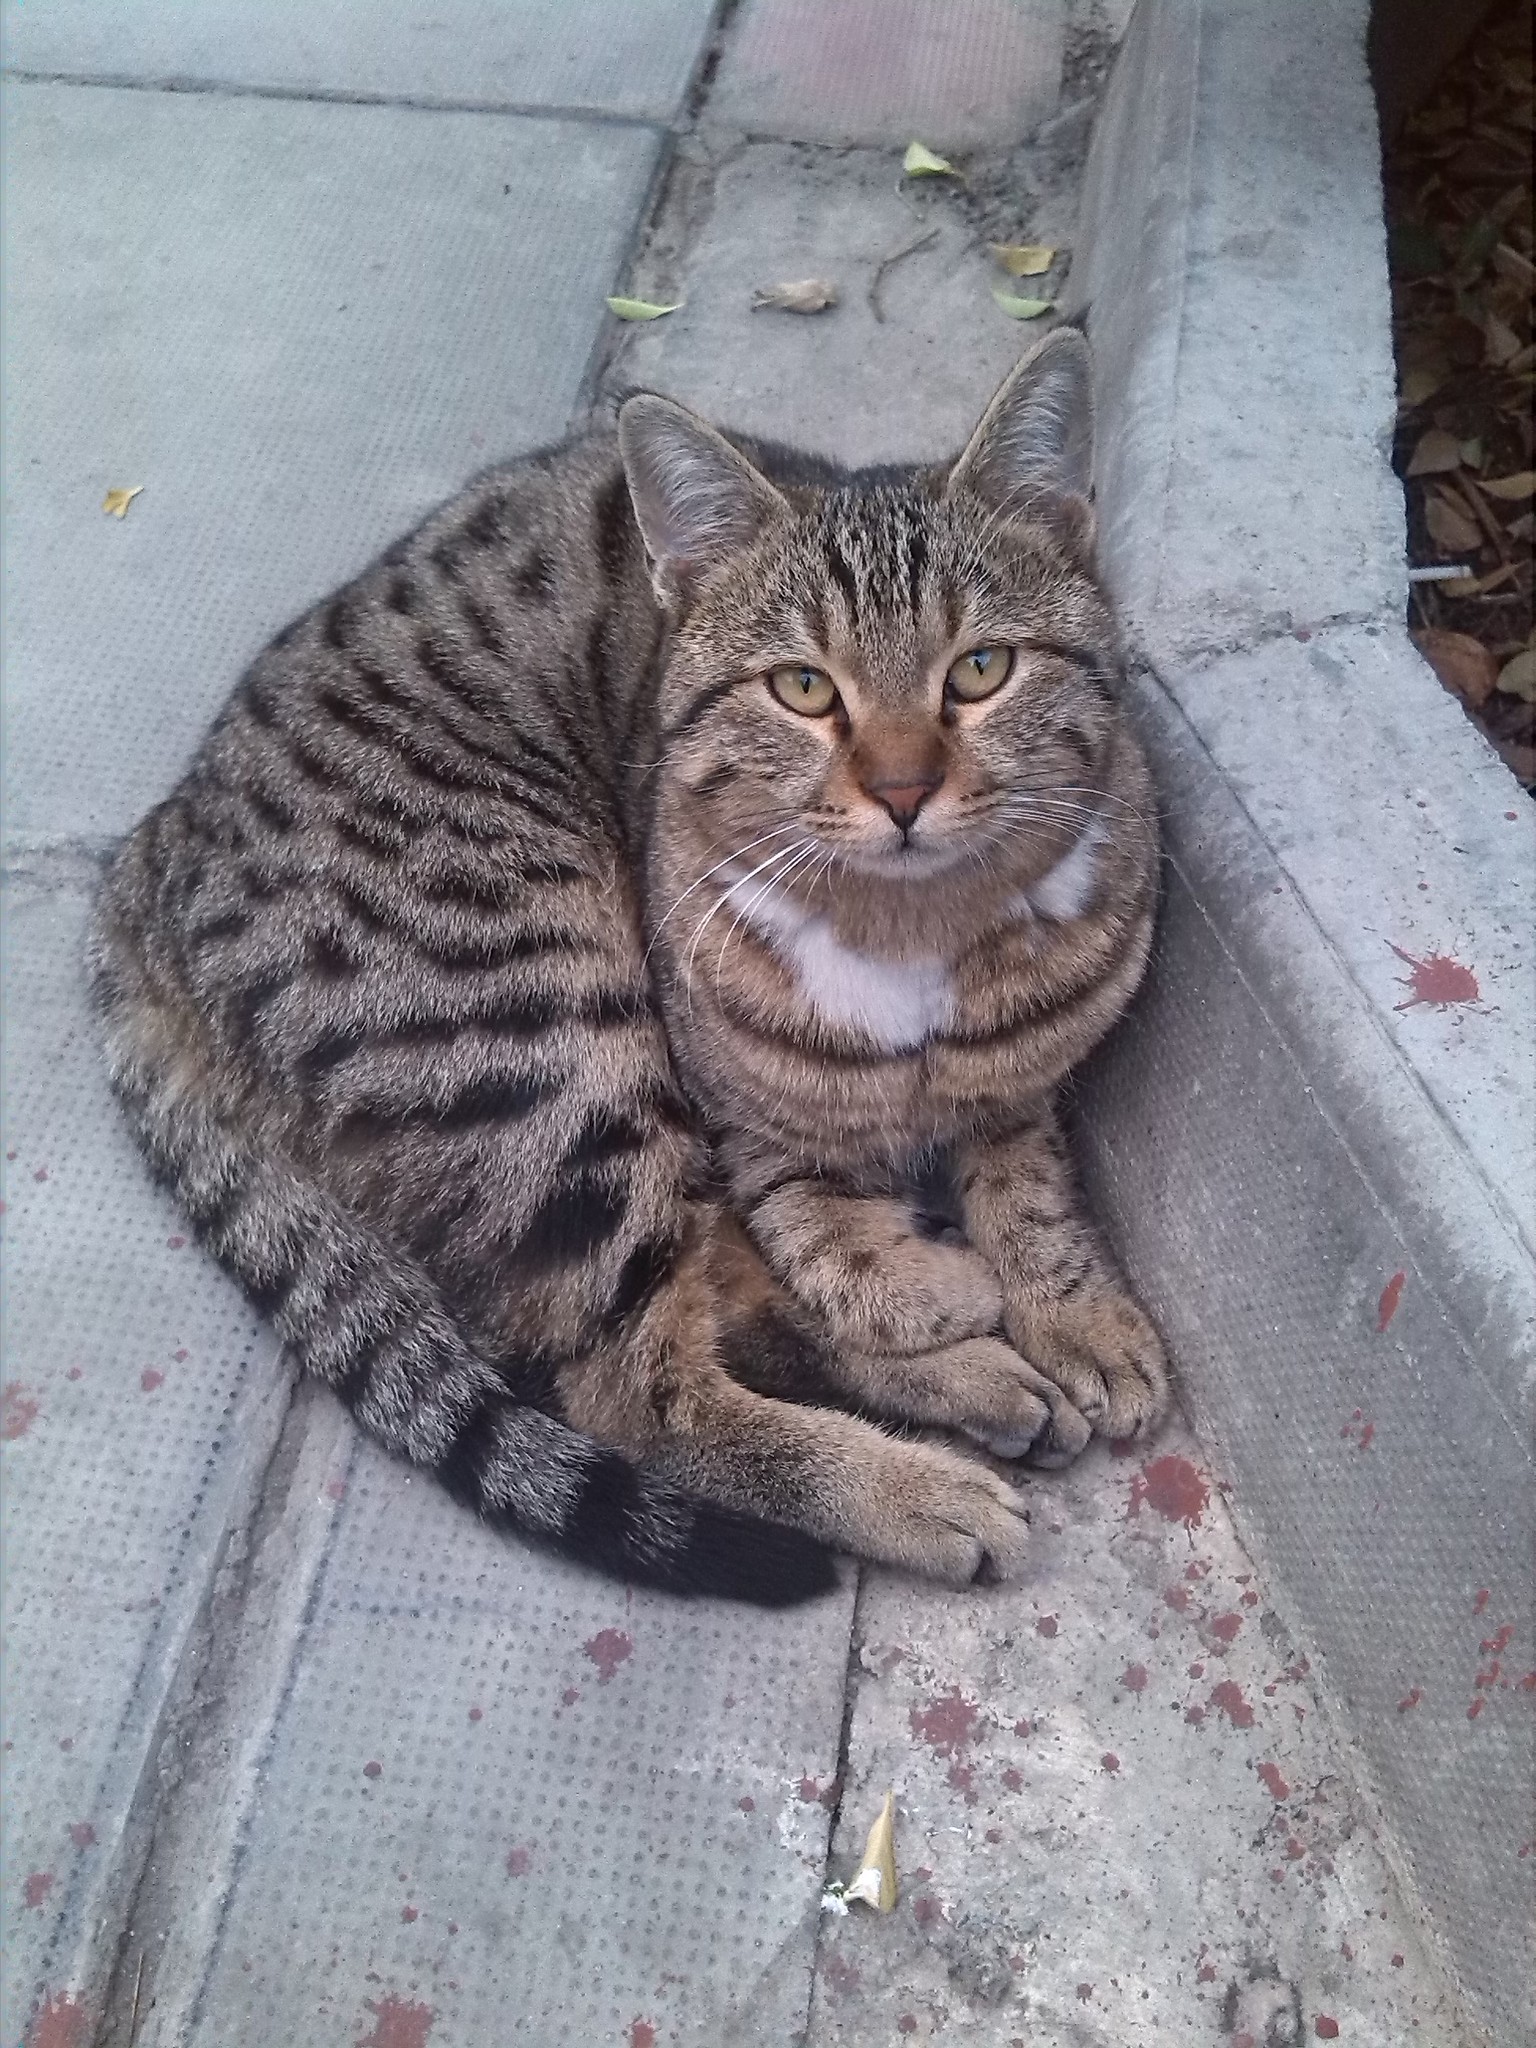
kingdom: Animalia
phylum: Chordata
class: Mammalia
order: Carnivora
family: Felidae
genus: Felis
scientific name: Felis catus
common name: Domestic cat
